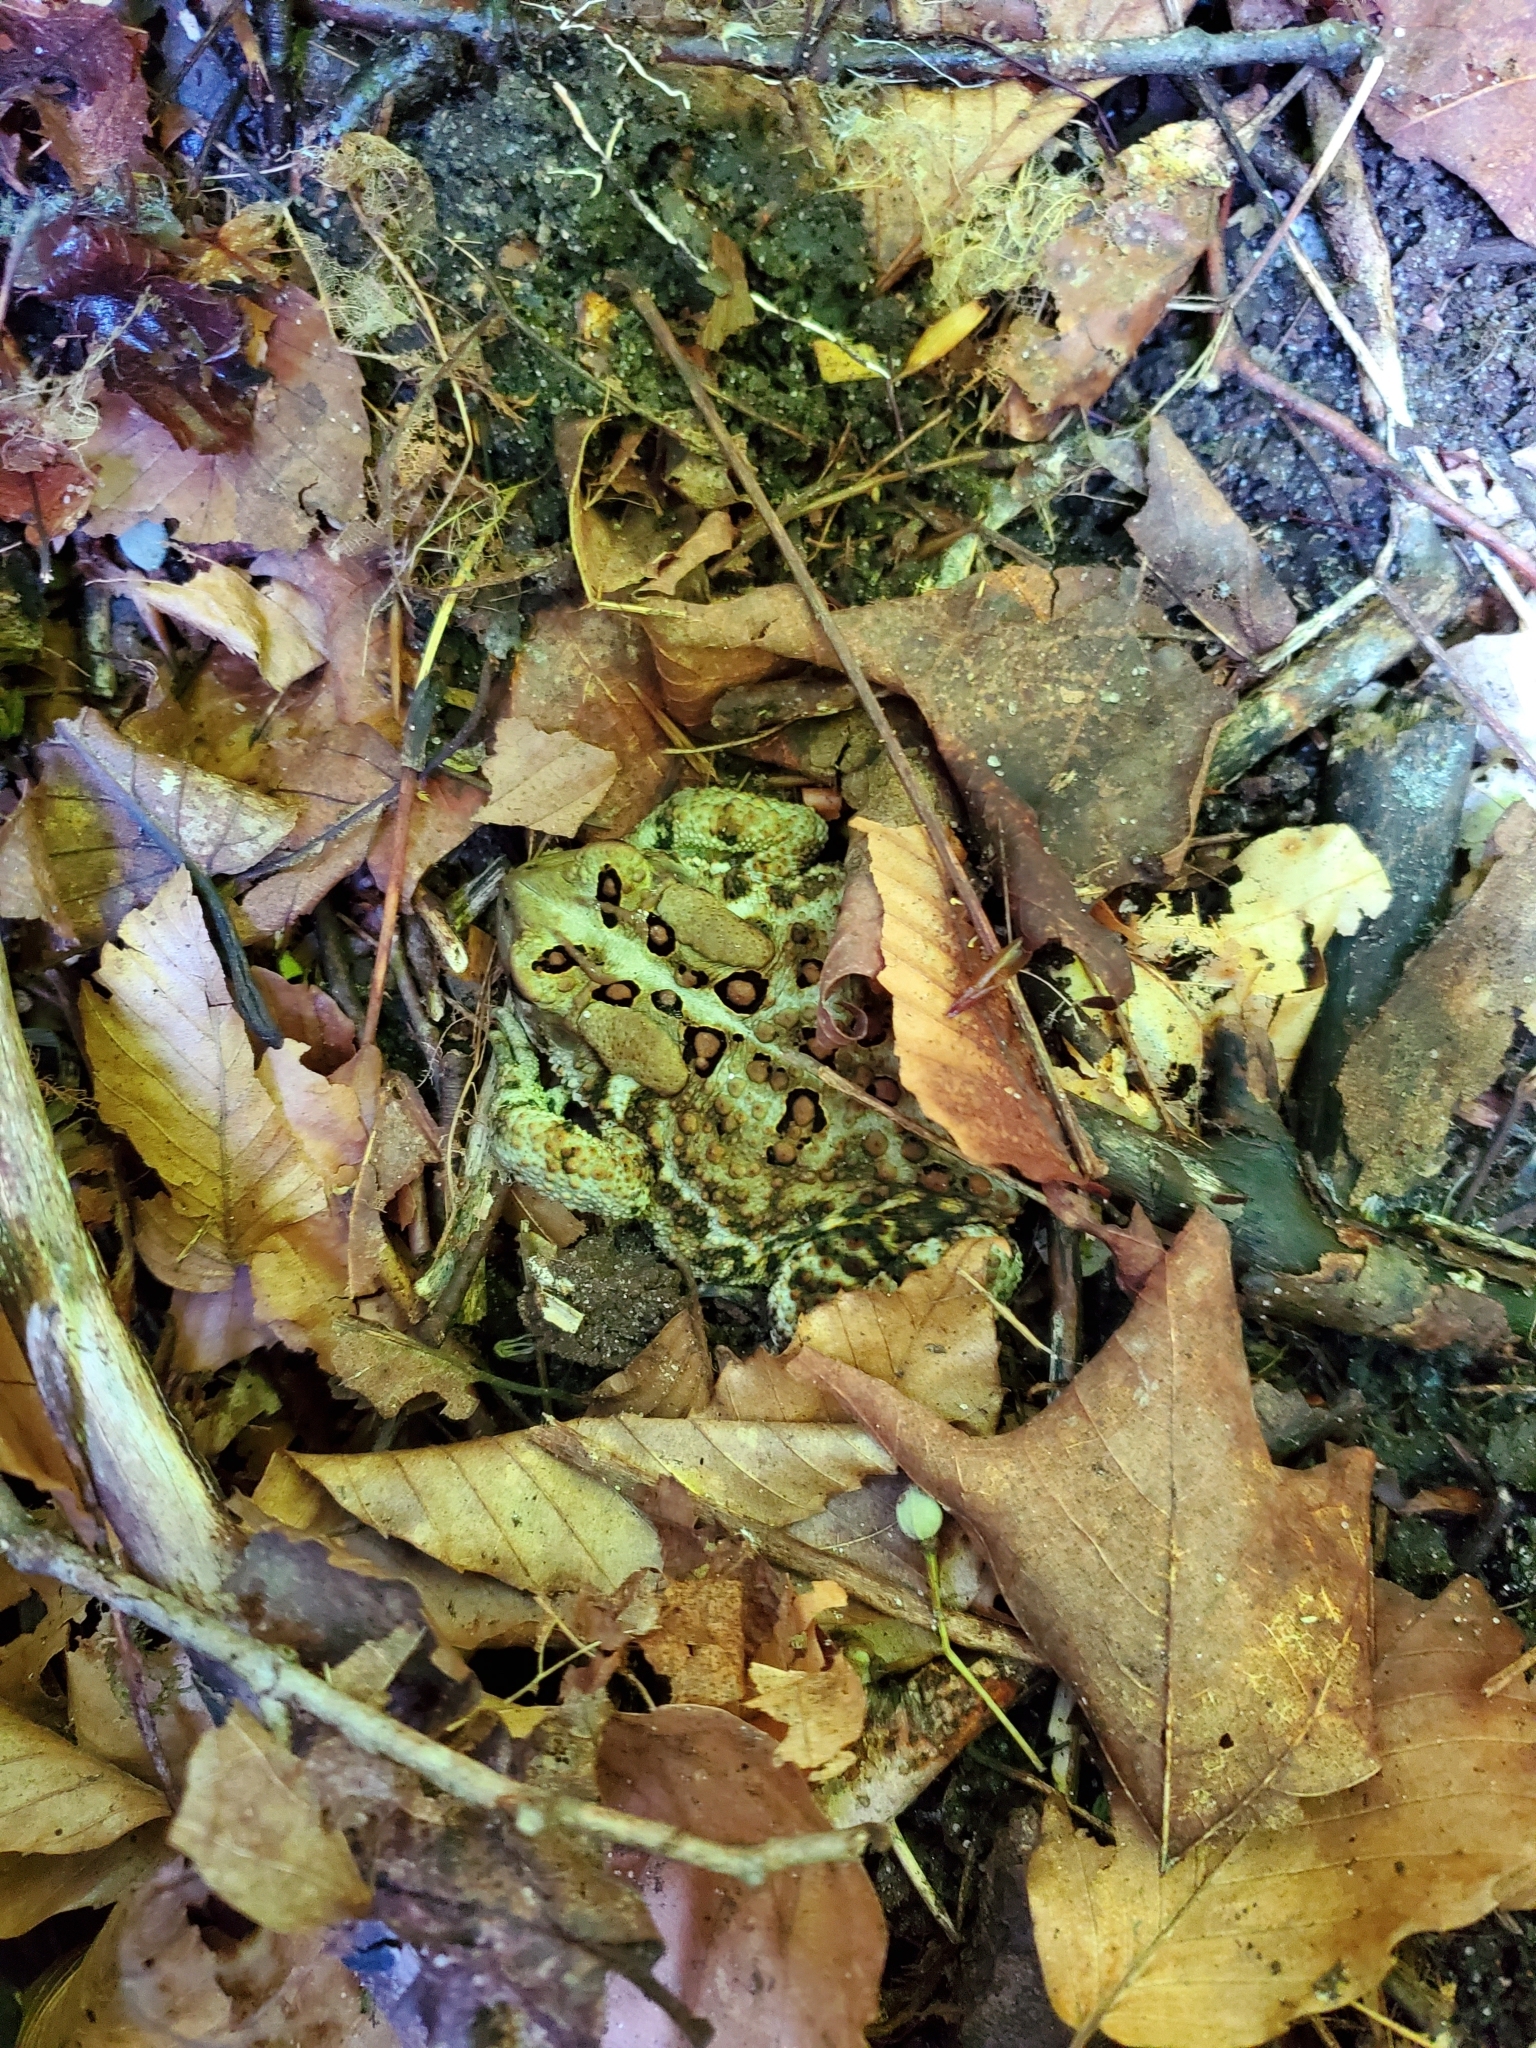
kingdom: Animalia
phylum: Chordata
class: Amphibia
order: Anura
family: Bufonidae
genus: Anaxyrus
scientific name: Anaxyrus americanus
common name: American toad
